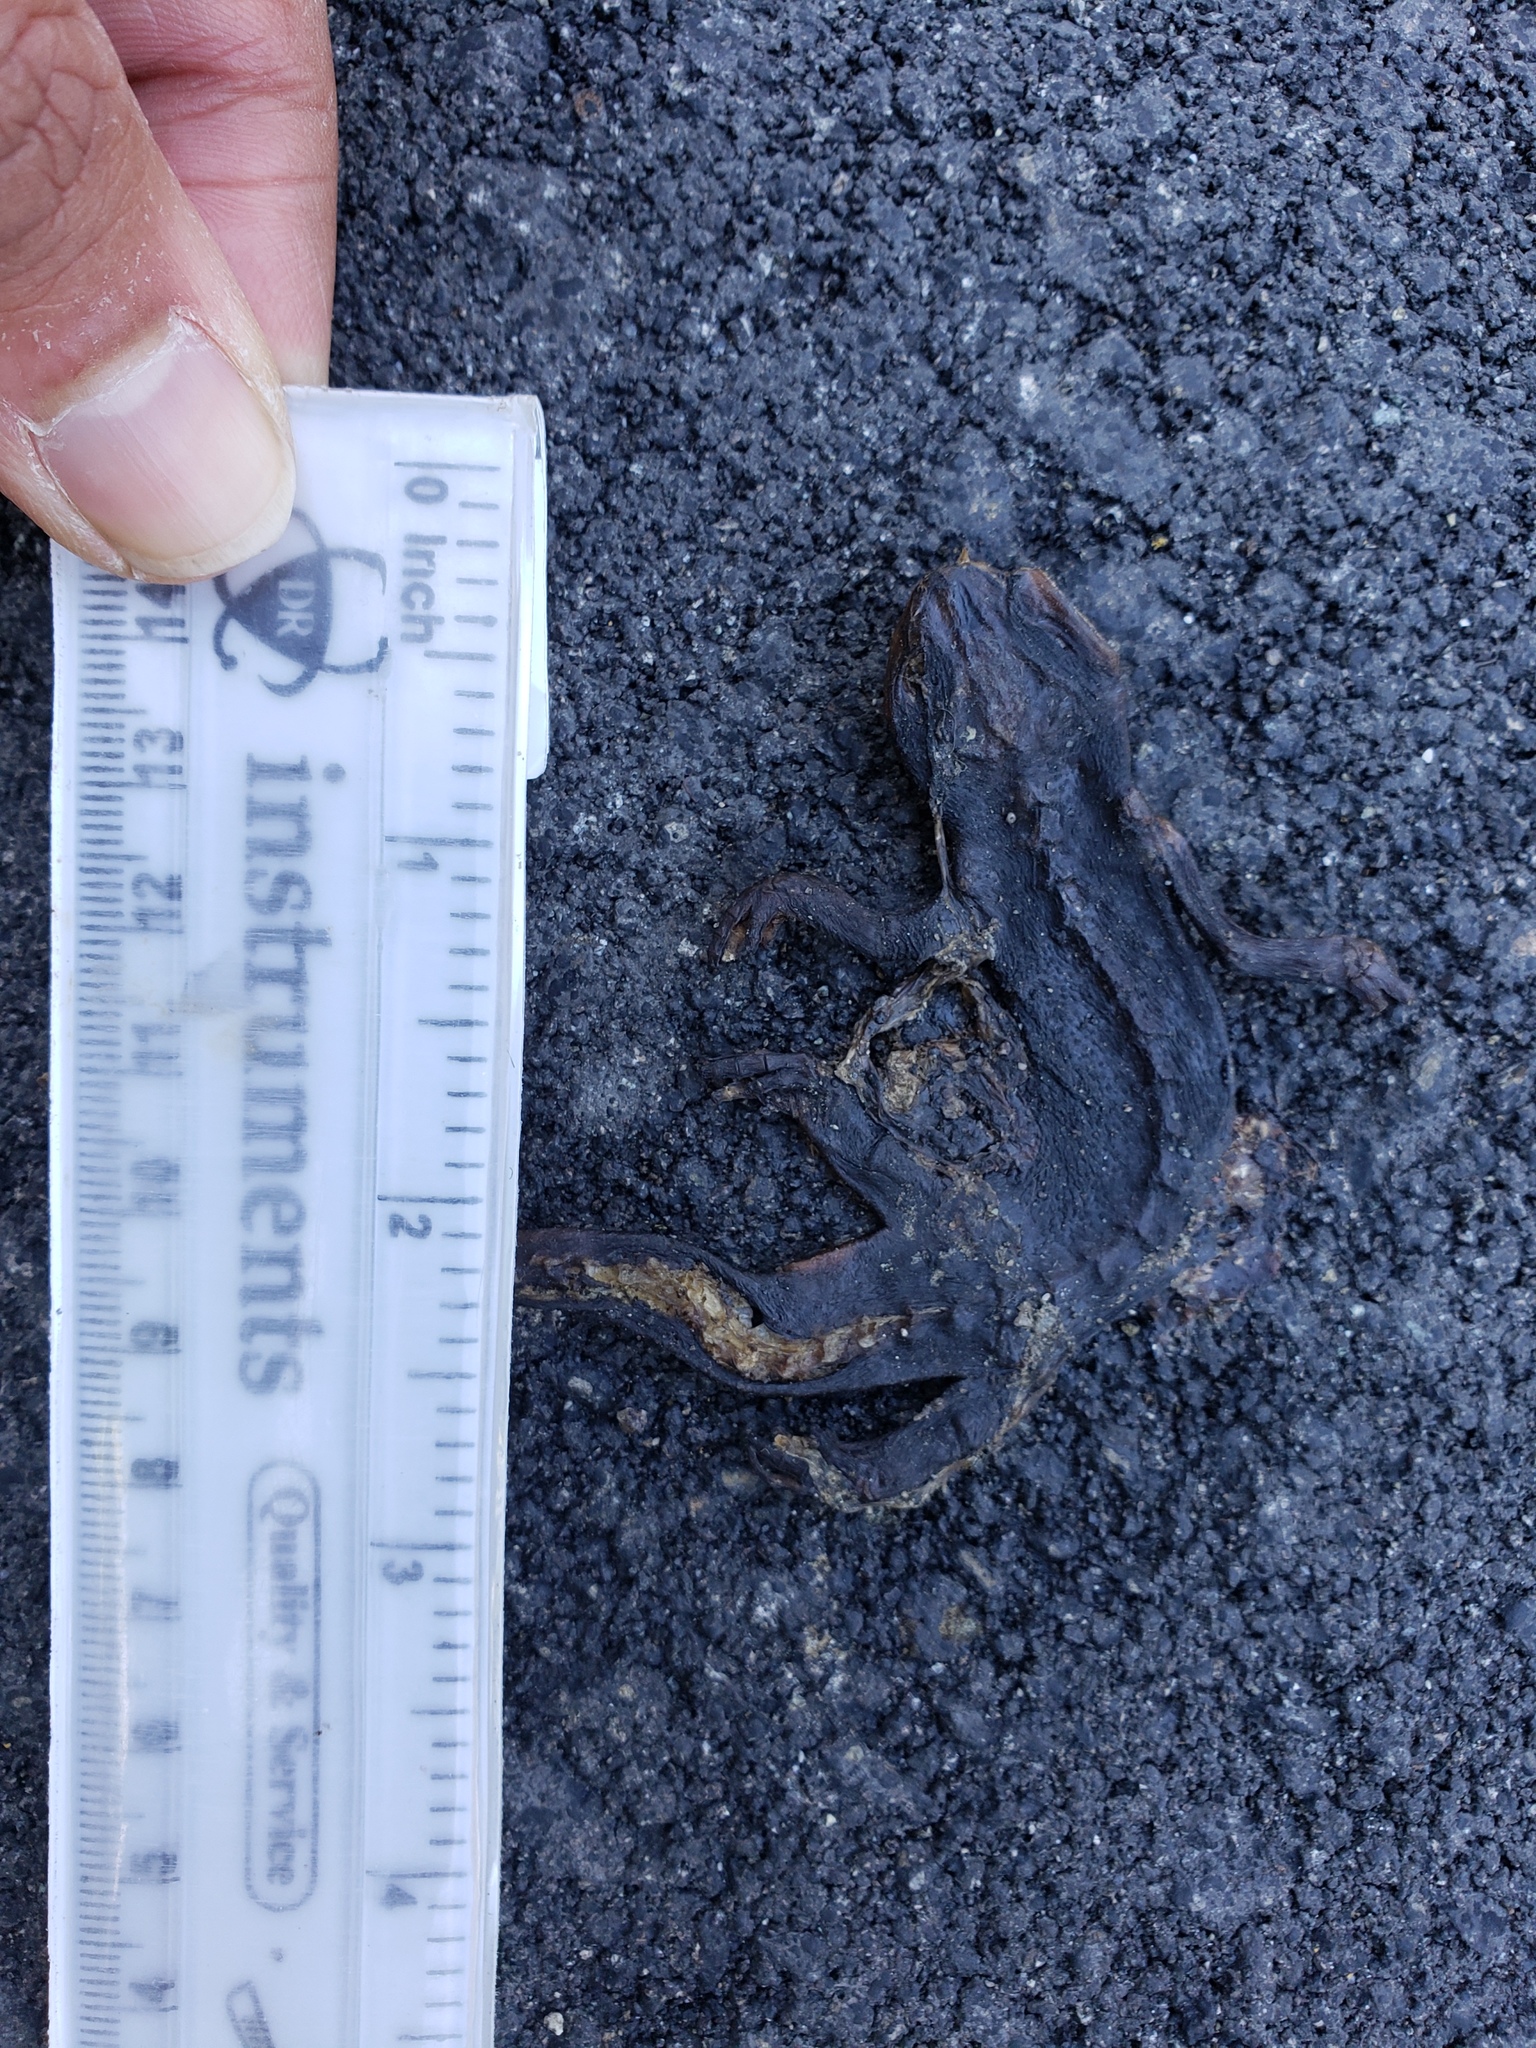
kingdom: Animalia
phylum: Chordata
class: Amphibia
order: Caudata
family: Salamandridae
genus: Taricha
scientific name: Taricha
